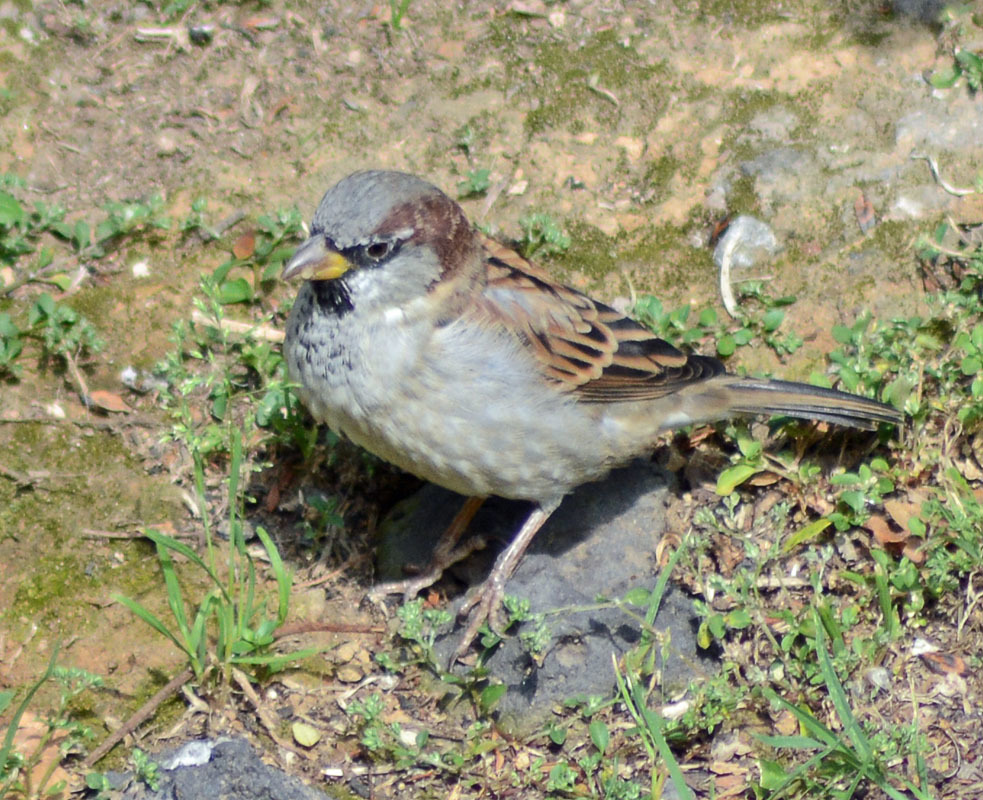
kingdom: Animalia
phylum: Chordata
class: Aves
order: Passeriformes
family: Passeridae
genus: Passer
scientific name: Passer domesticus
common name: House sparrow
